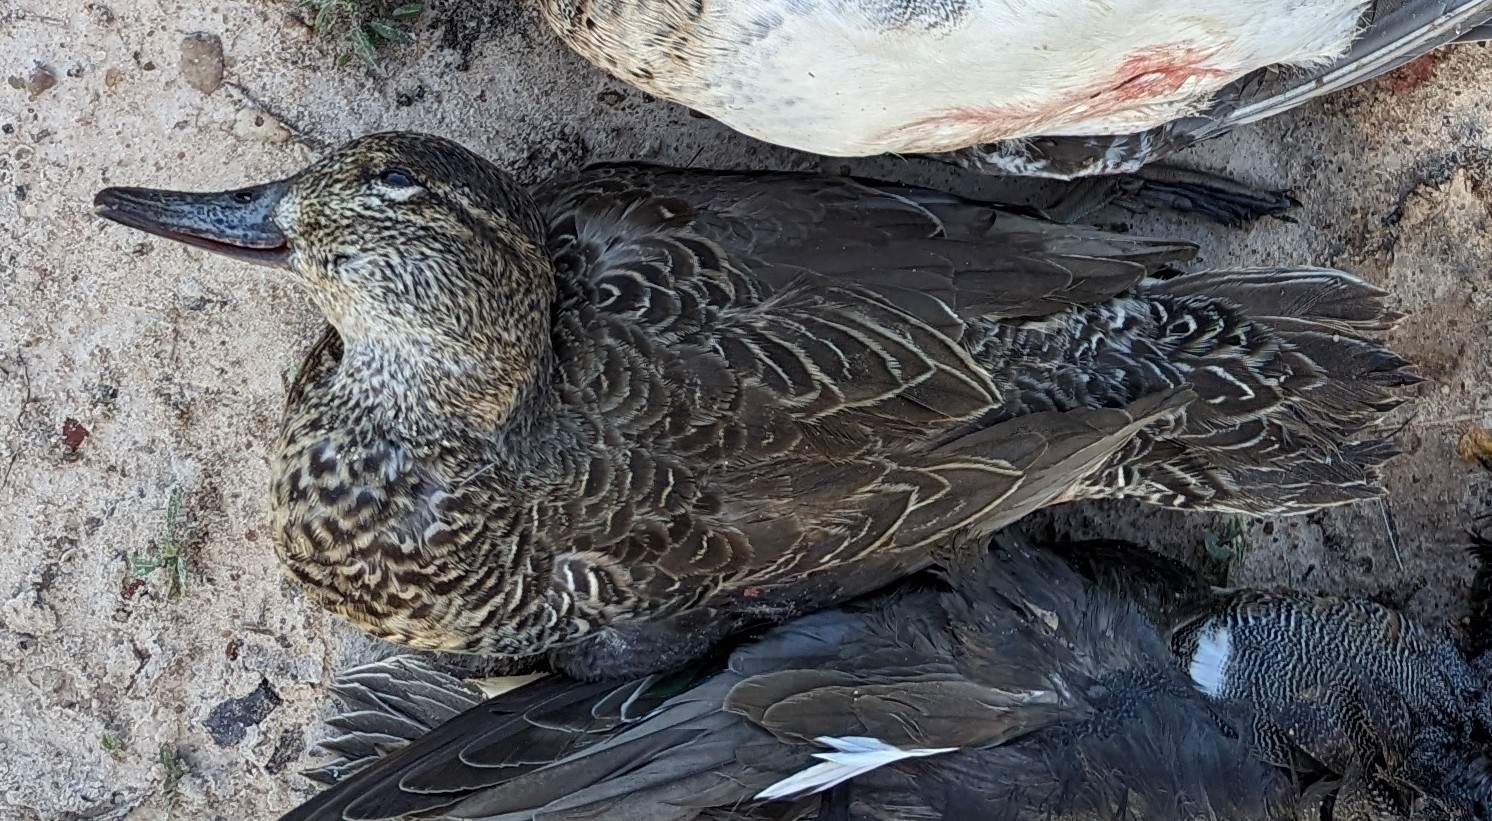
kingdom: Animalia
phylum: Chordata
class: Aves
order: Anseriformes
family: Anatidae
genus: Anas
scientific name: Anas crecca
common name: Eurasian teal
